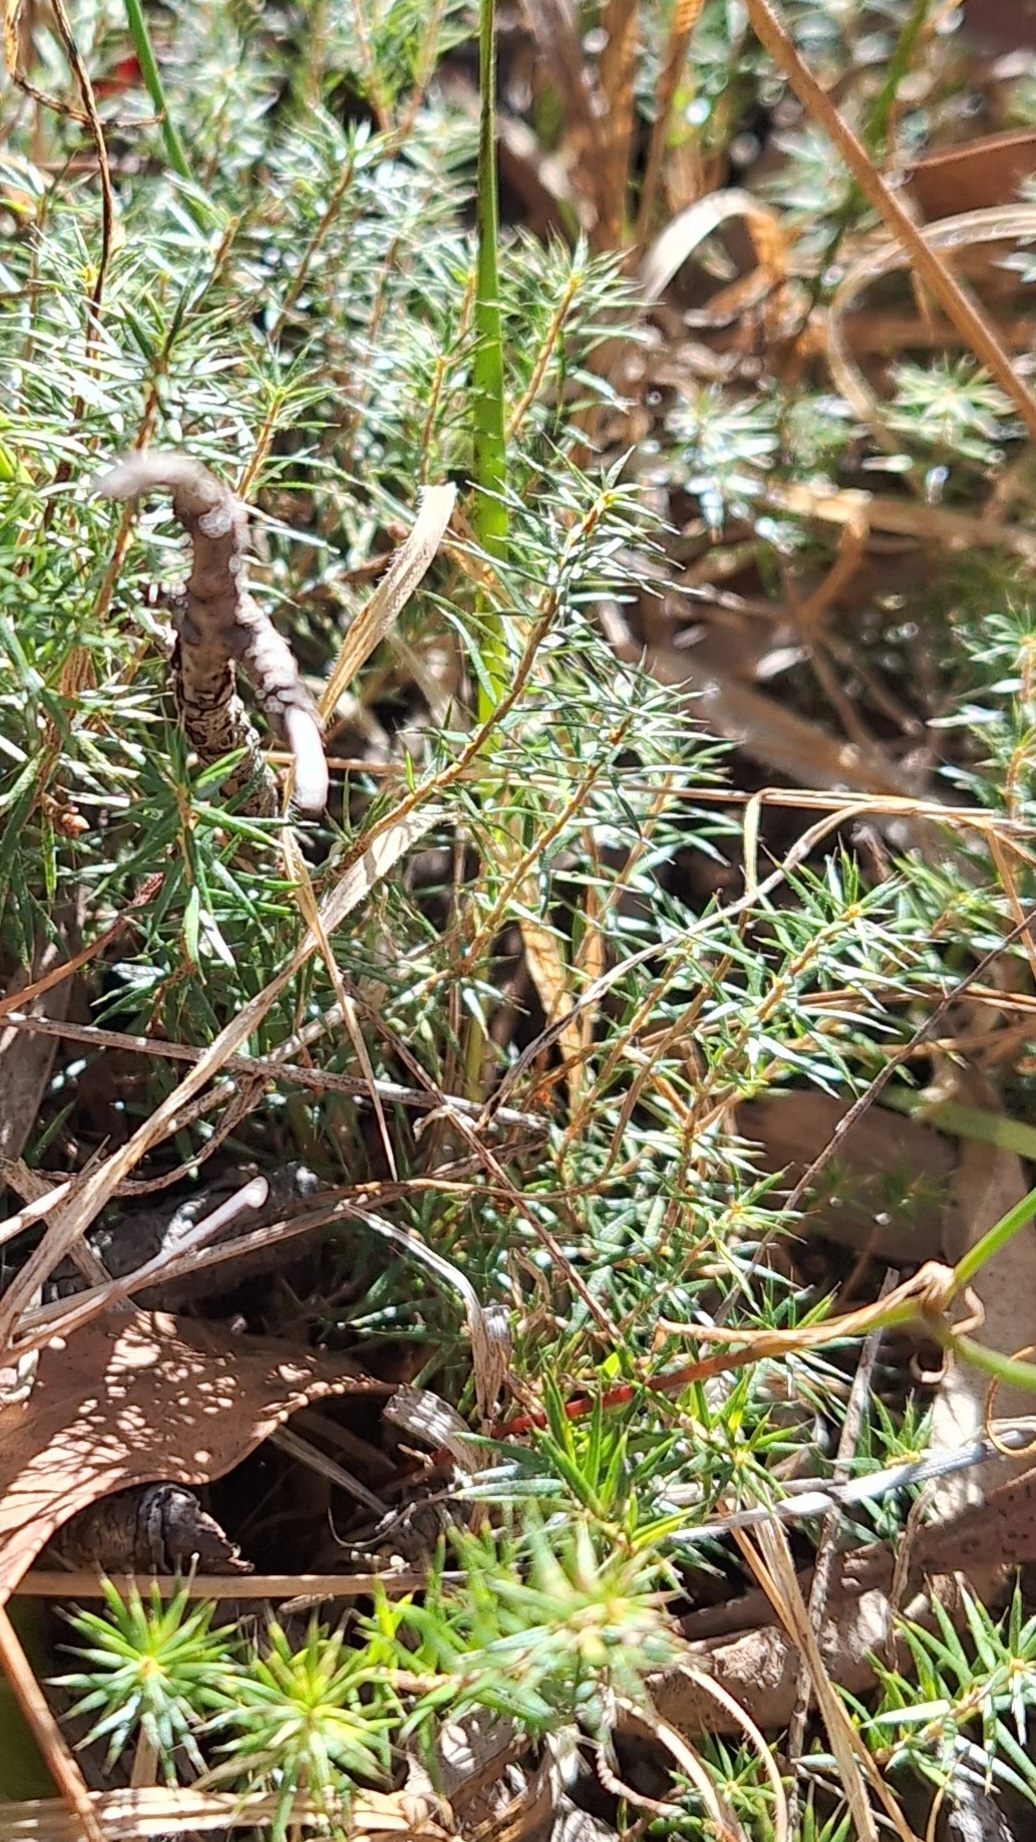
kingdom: Plantae
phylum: Tracheophyta
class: Magnoliopsida
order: Ericales
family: Ericaceae
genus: Acrotriche
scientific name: Acrotriche serrulata
